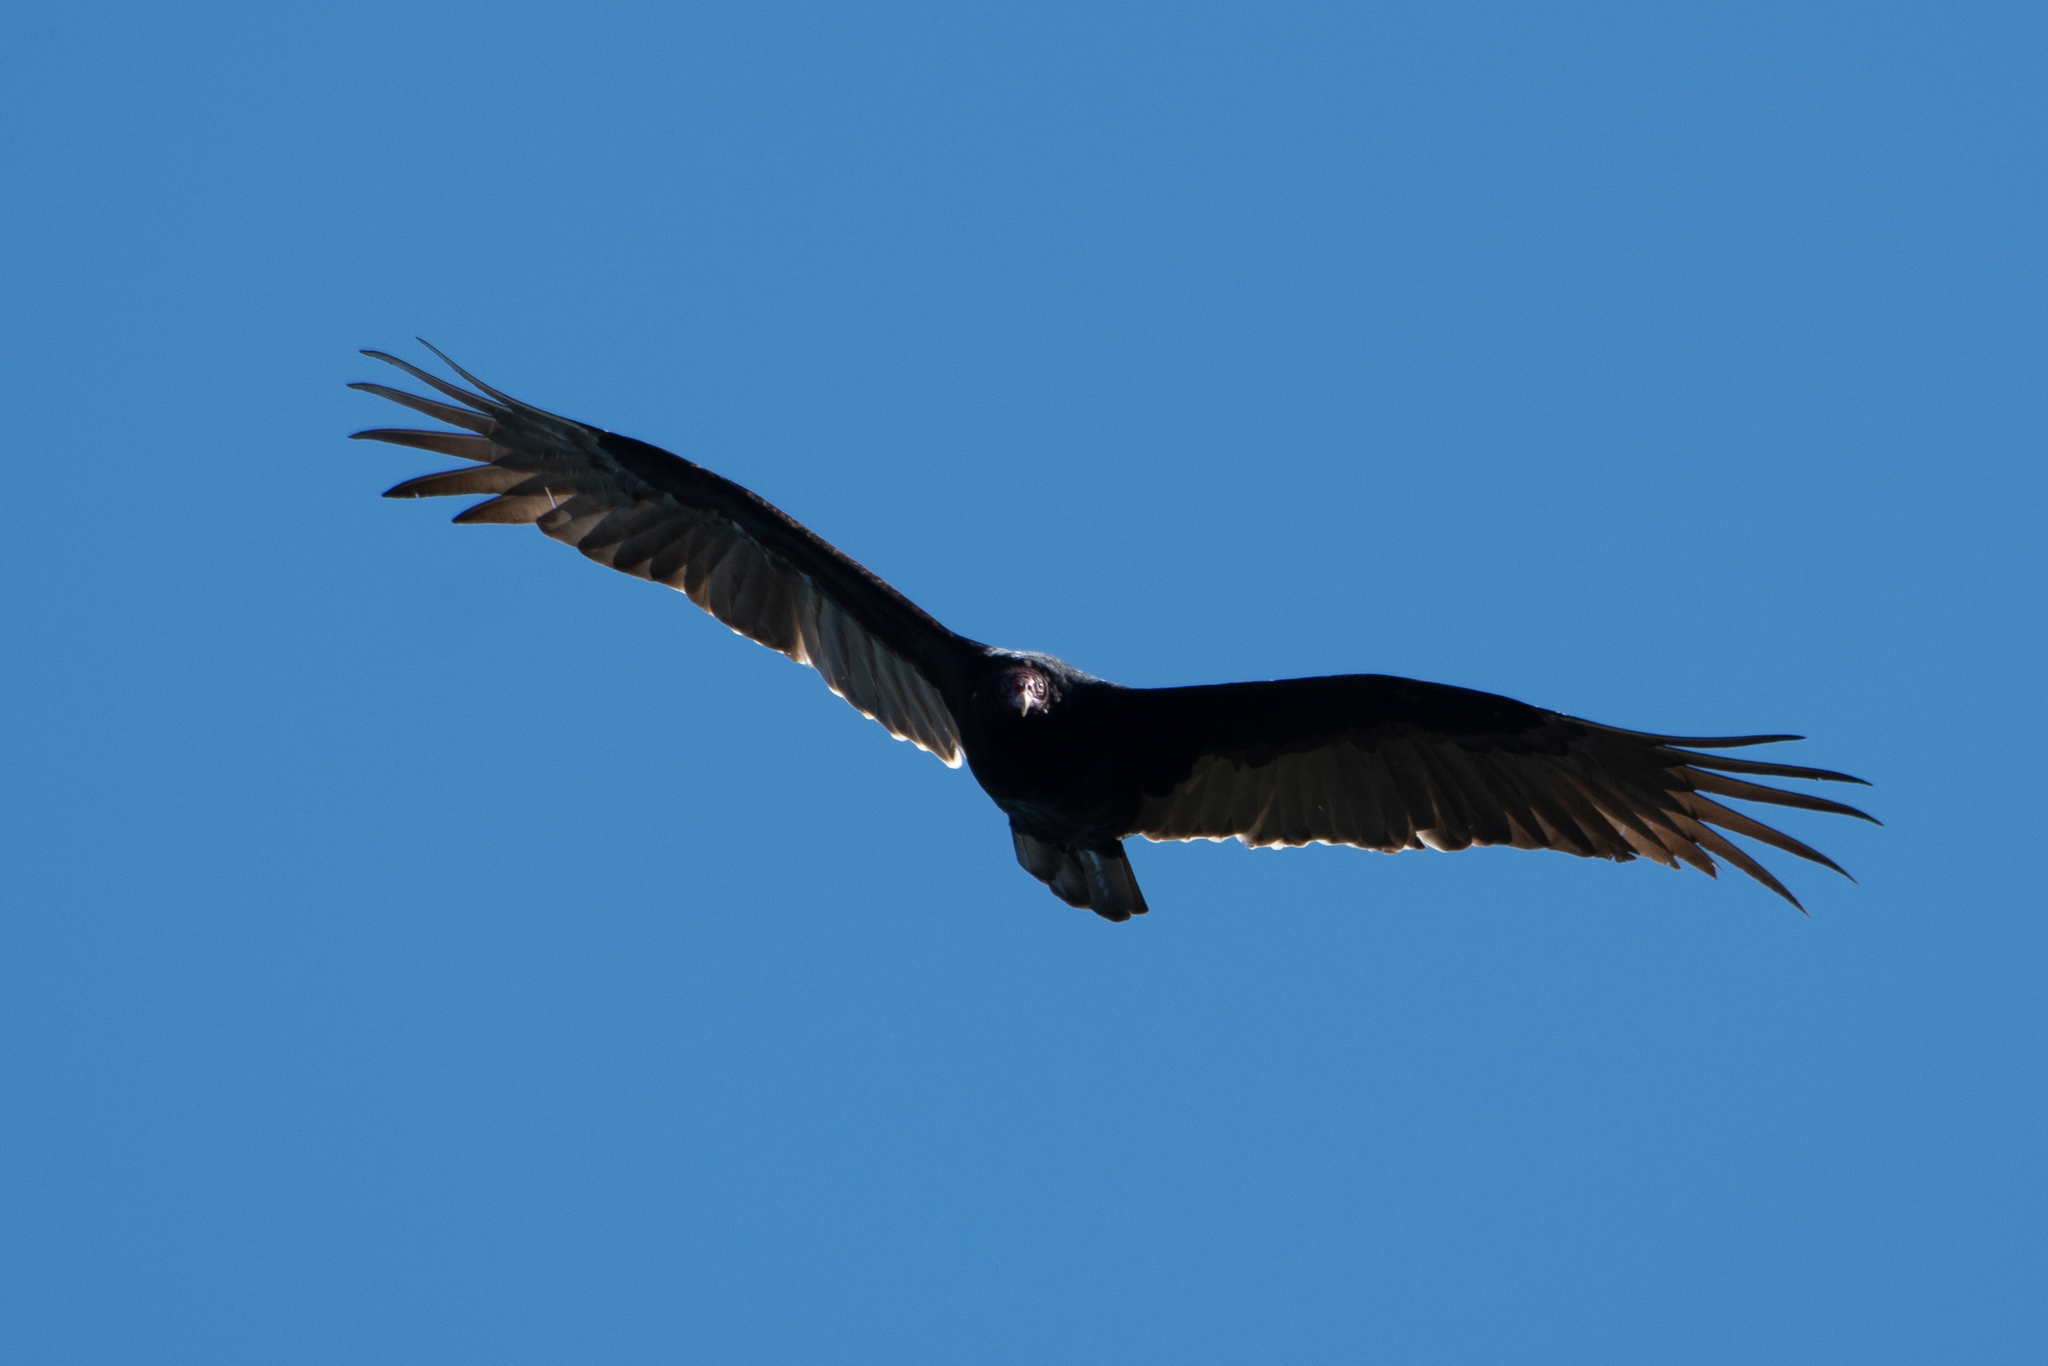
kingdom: Animalia
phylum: Chordata
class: Aves
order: Accipitriformes
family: Cathartidae
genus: Cathartes
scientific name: Cathartes aura
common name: Turkey vulture
